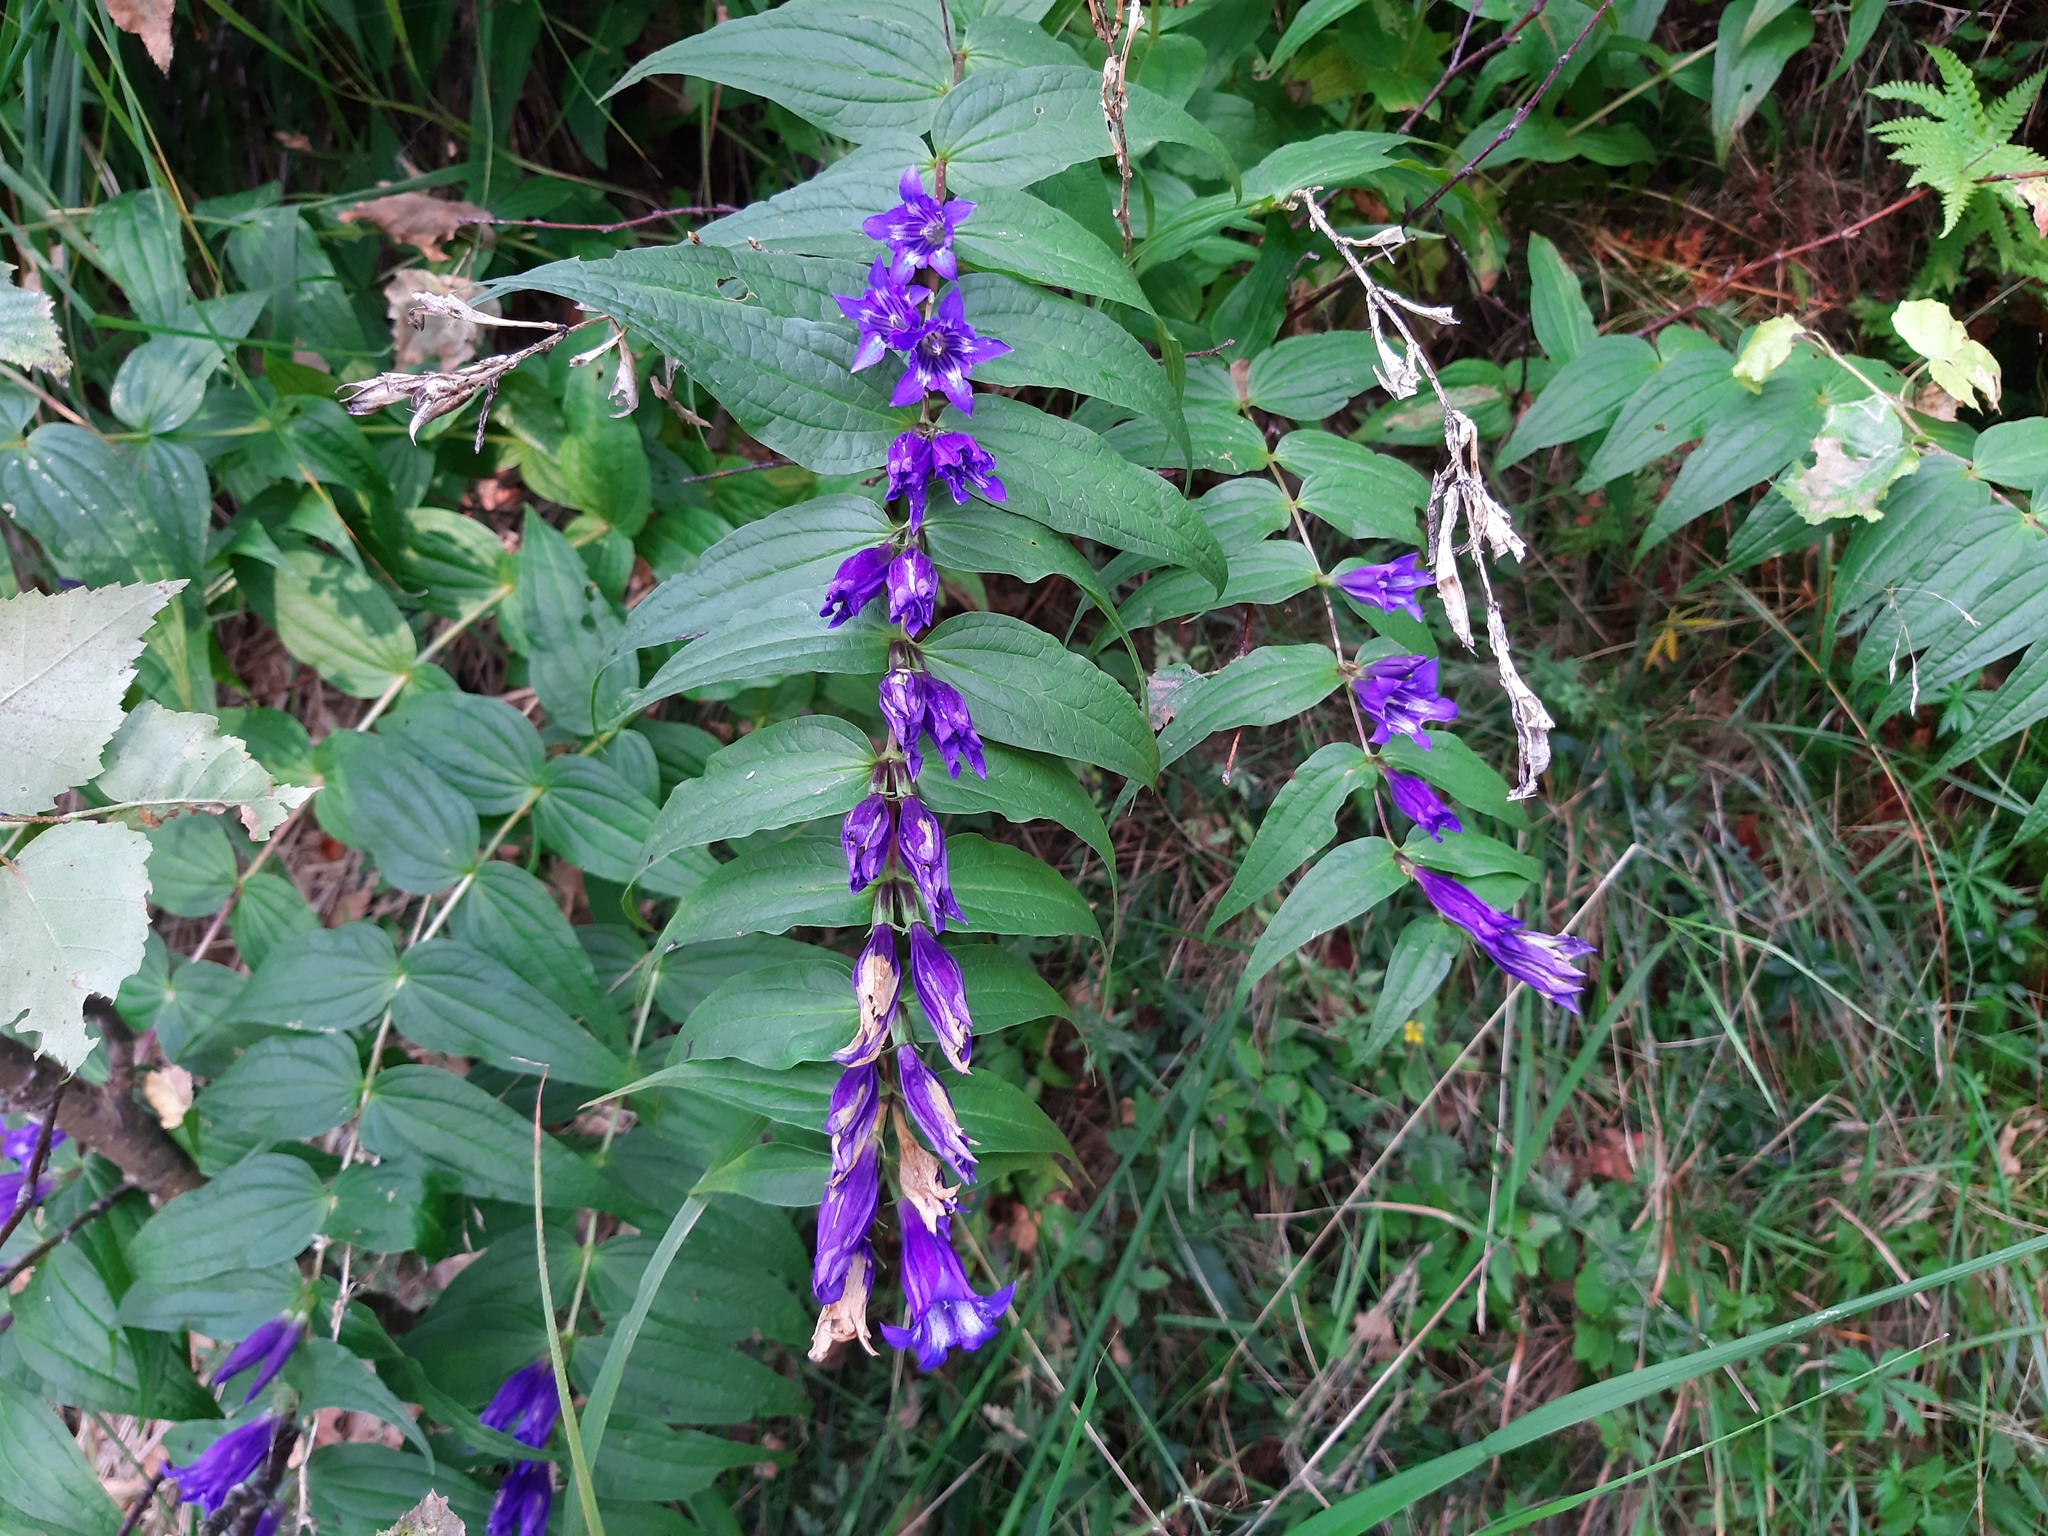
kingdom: Plantae
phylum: Tracheophyta
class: Magnoliopsida
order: Gentianales
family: Gentianaceae
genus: Gentiana
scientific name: Gentiana asclepiadea
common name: Willow gentian
